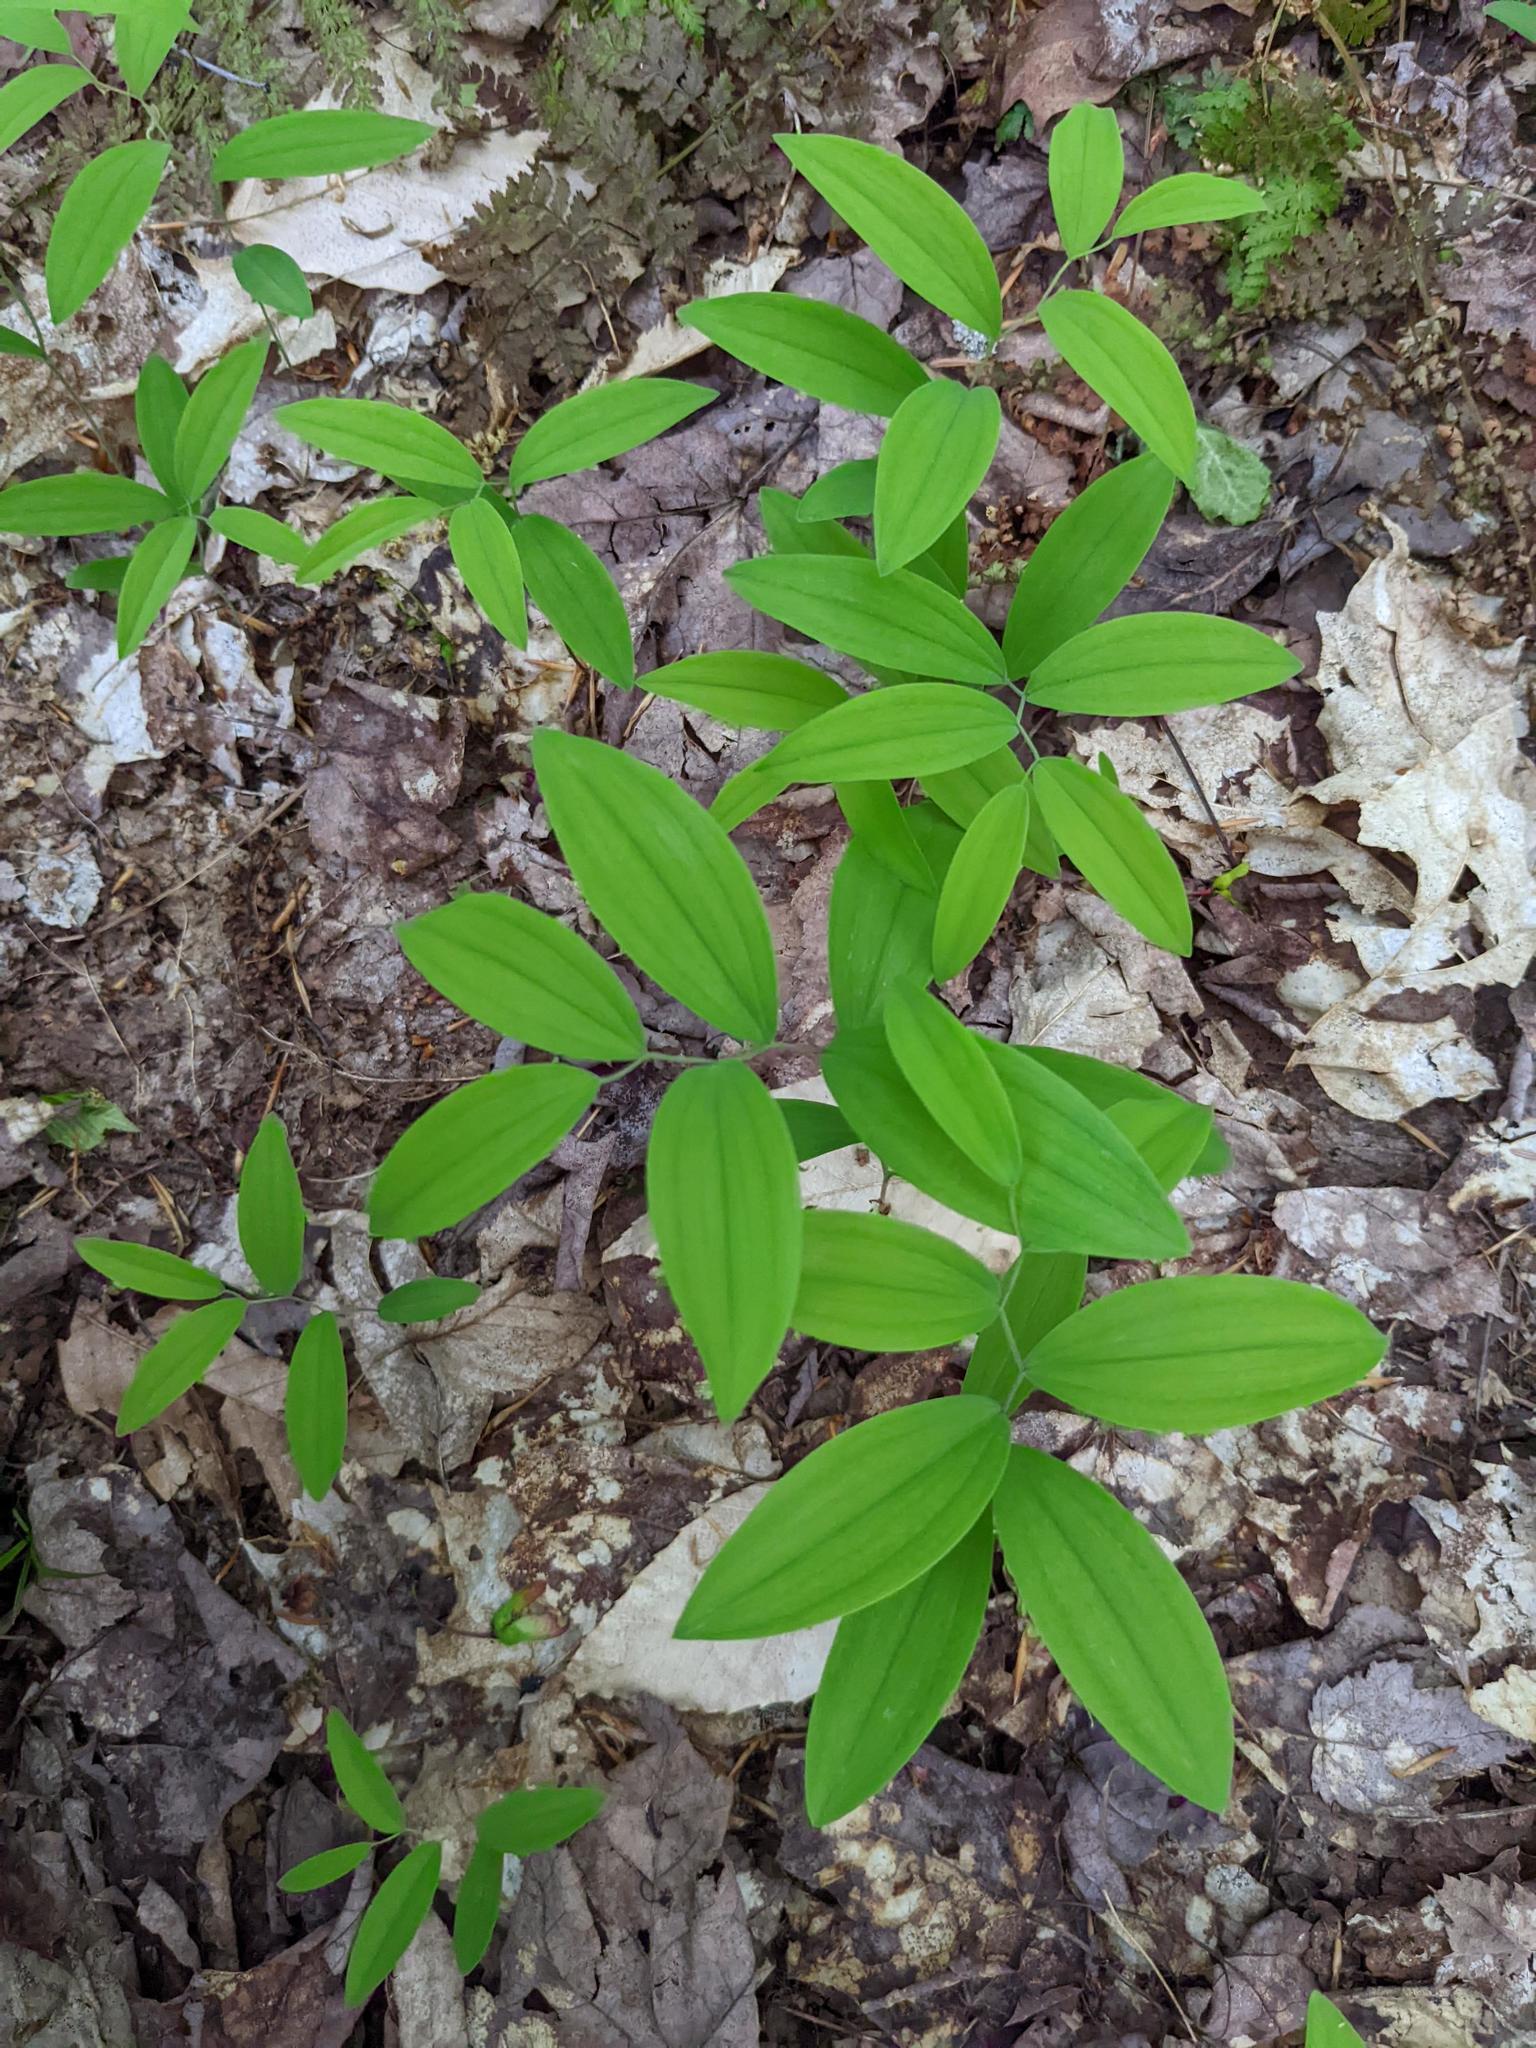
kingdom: Plantae
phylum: Tracheophyta
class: Liliopsida
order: Liliales
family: Colchicaceae
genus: Uvularia
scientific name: Uvularia sessilifolia
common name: Straw-lily
